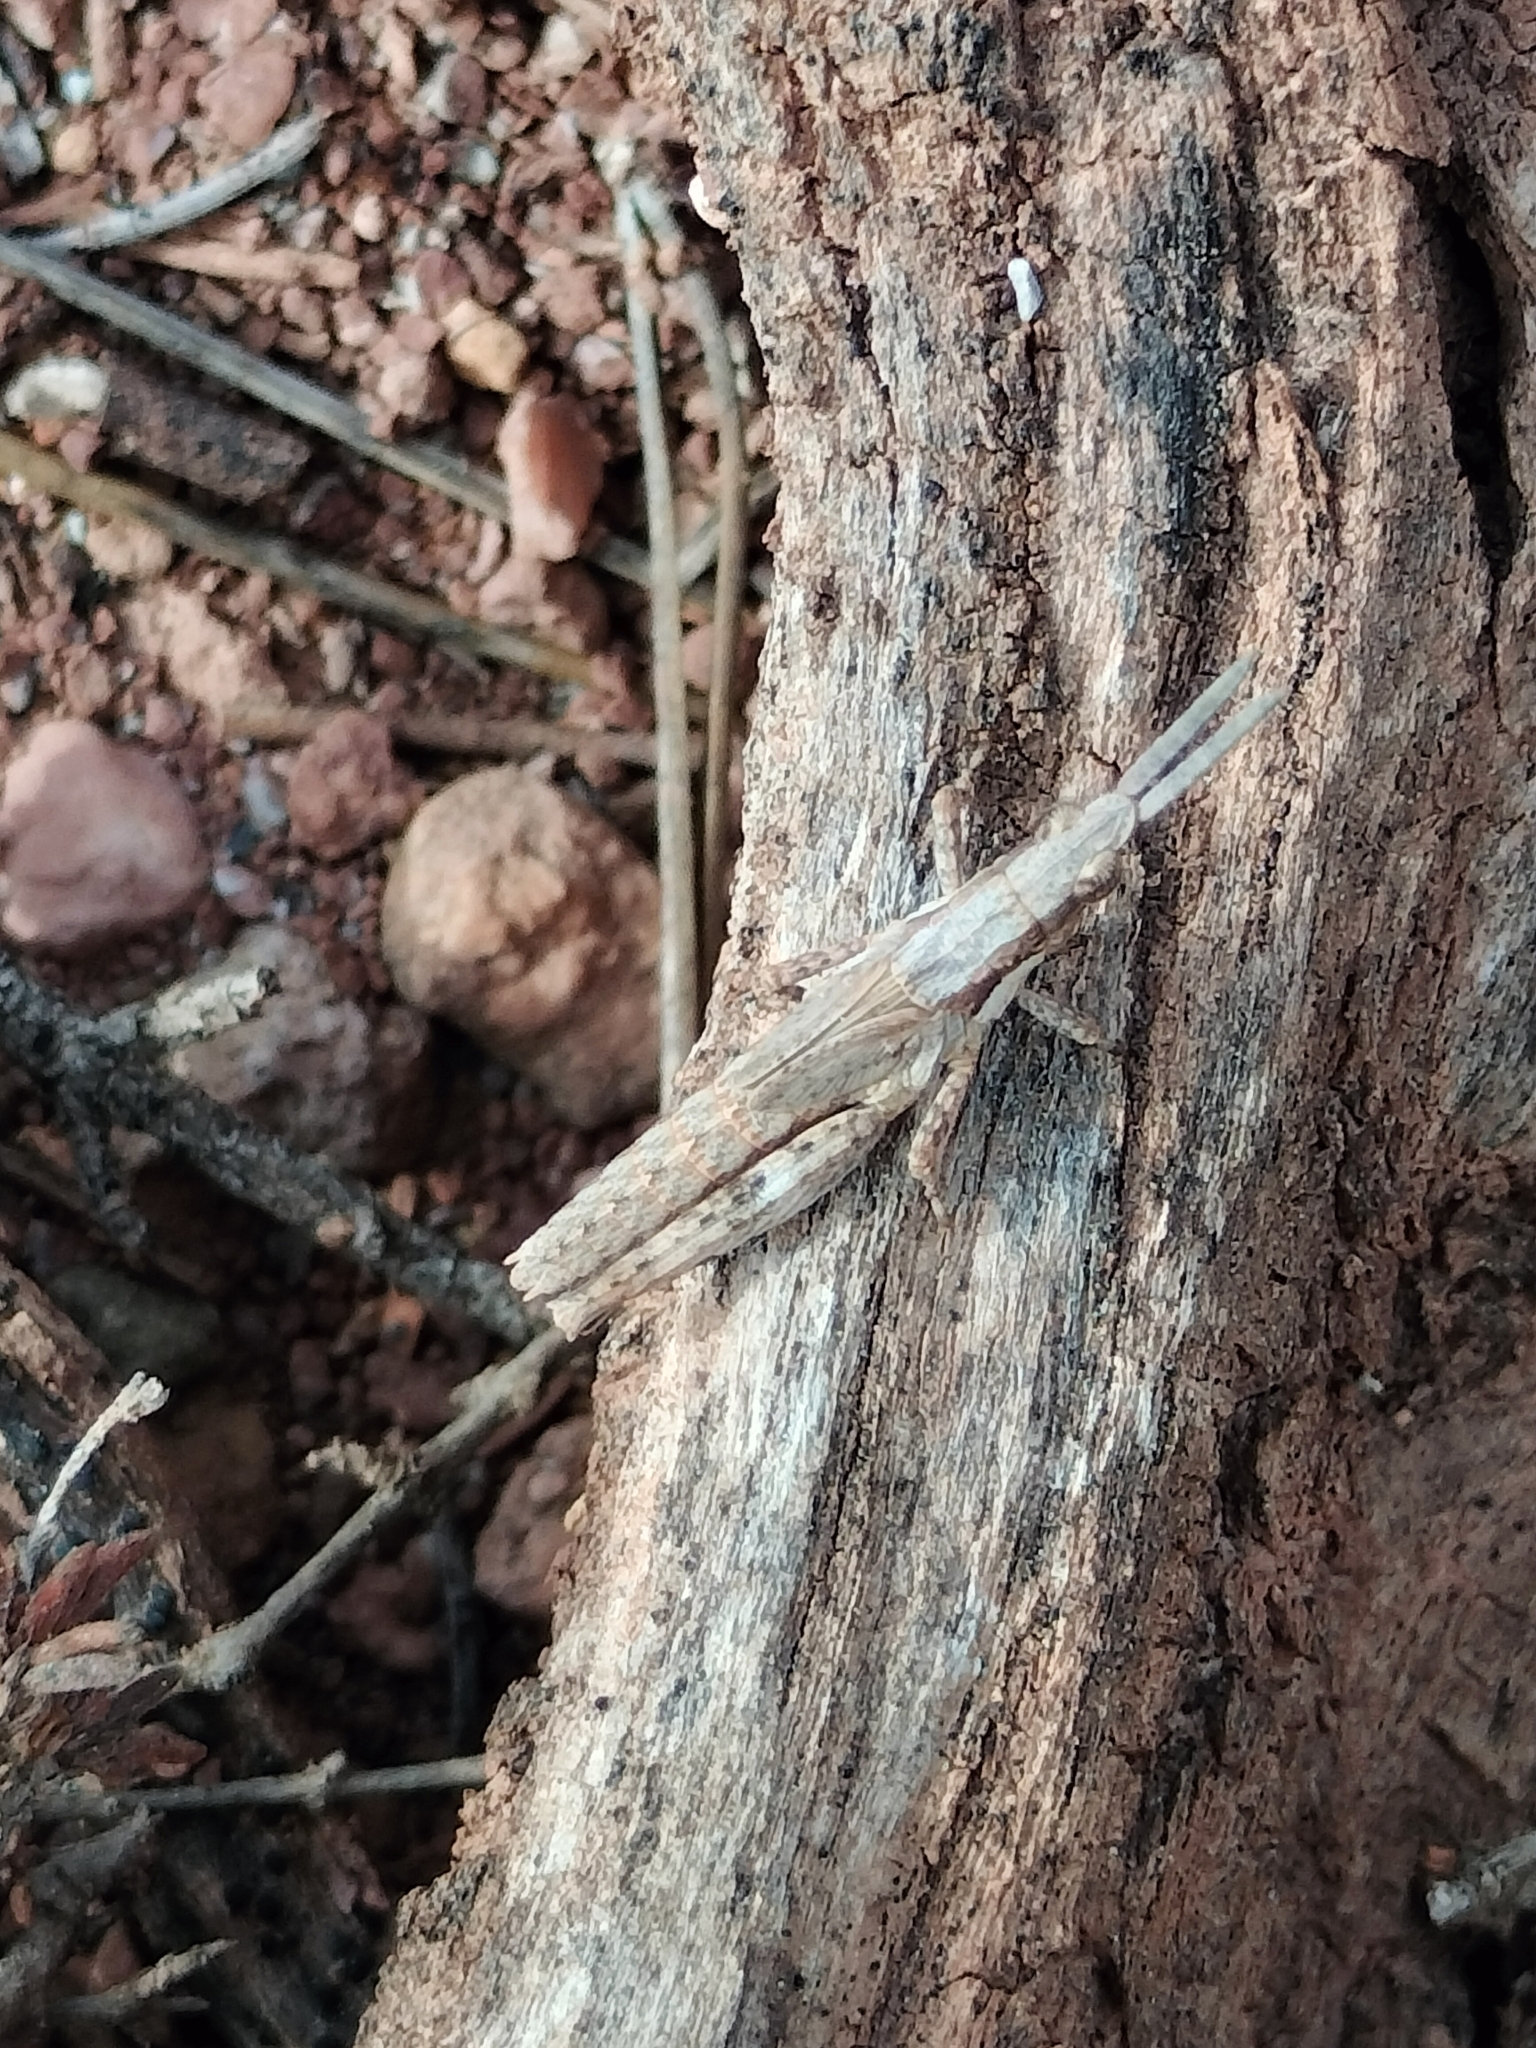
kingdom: Animalia
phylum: Arthropoda
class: Insecta
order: Orthoptera
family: Pyrgomorphidae
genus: Pyrgomorpha
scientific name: Pyrgomorpha conica
